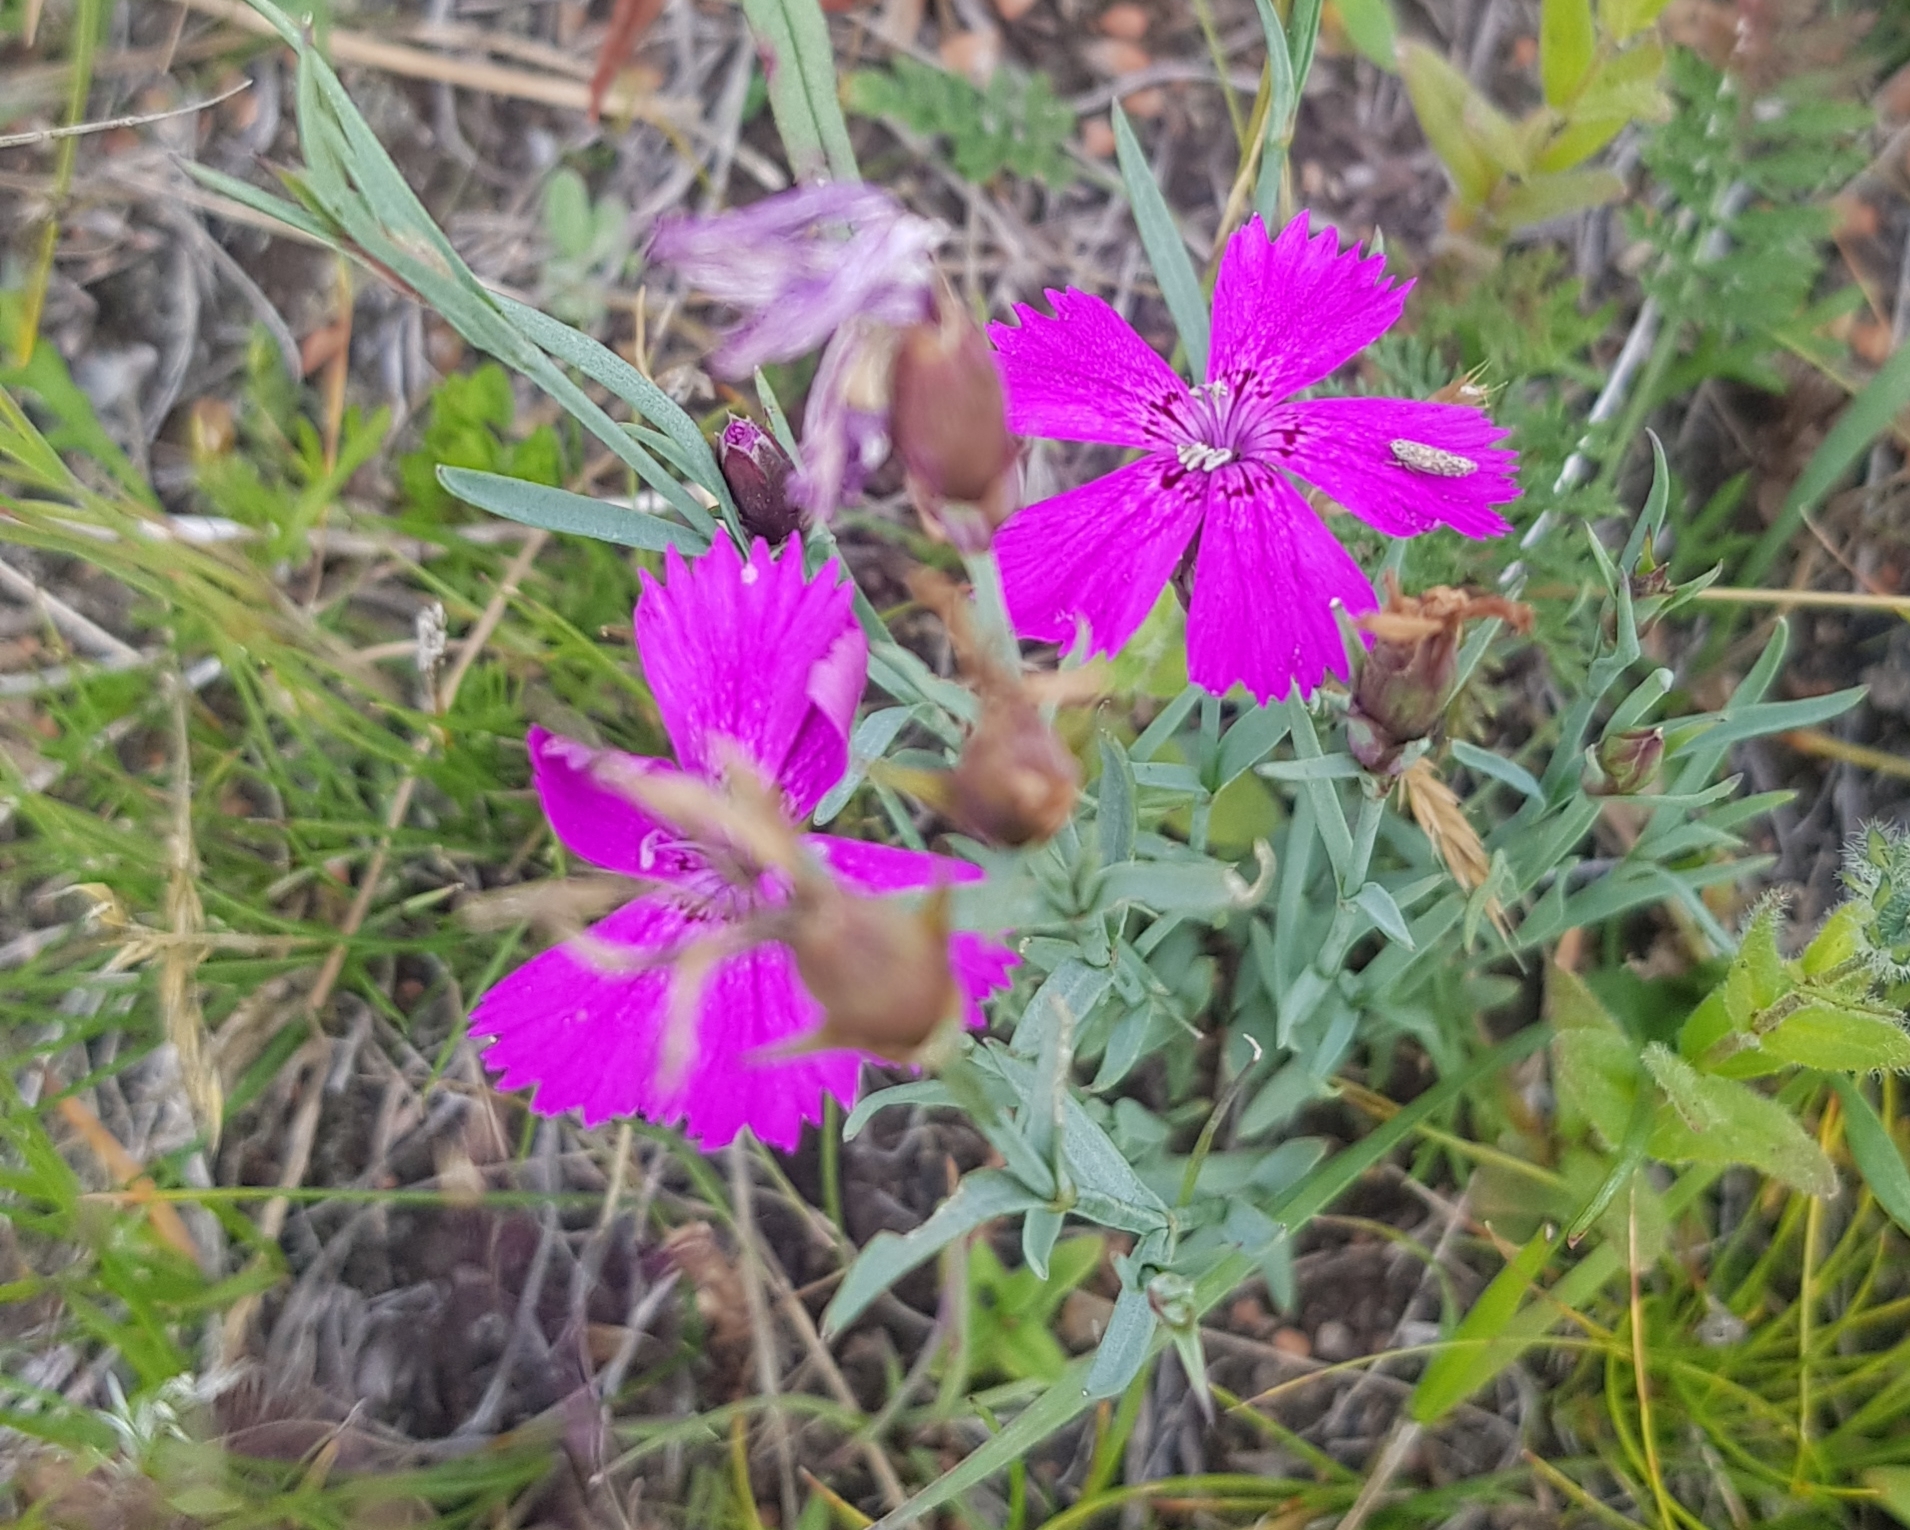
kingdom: Plantae
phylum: Tracheophyta
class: Magnoliopsida
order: Caryophyllales
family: Caryophyllaceae
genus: Dianthus
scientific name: Dianthus chinensis
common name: Rainbow pink
